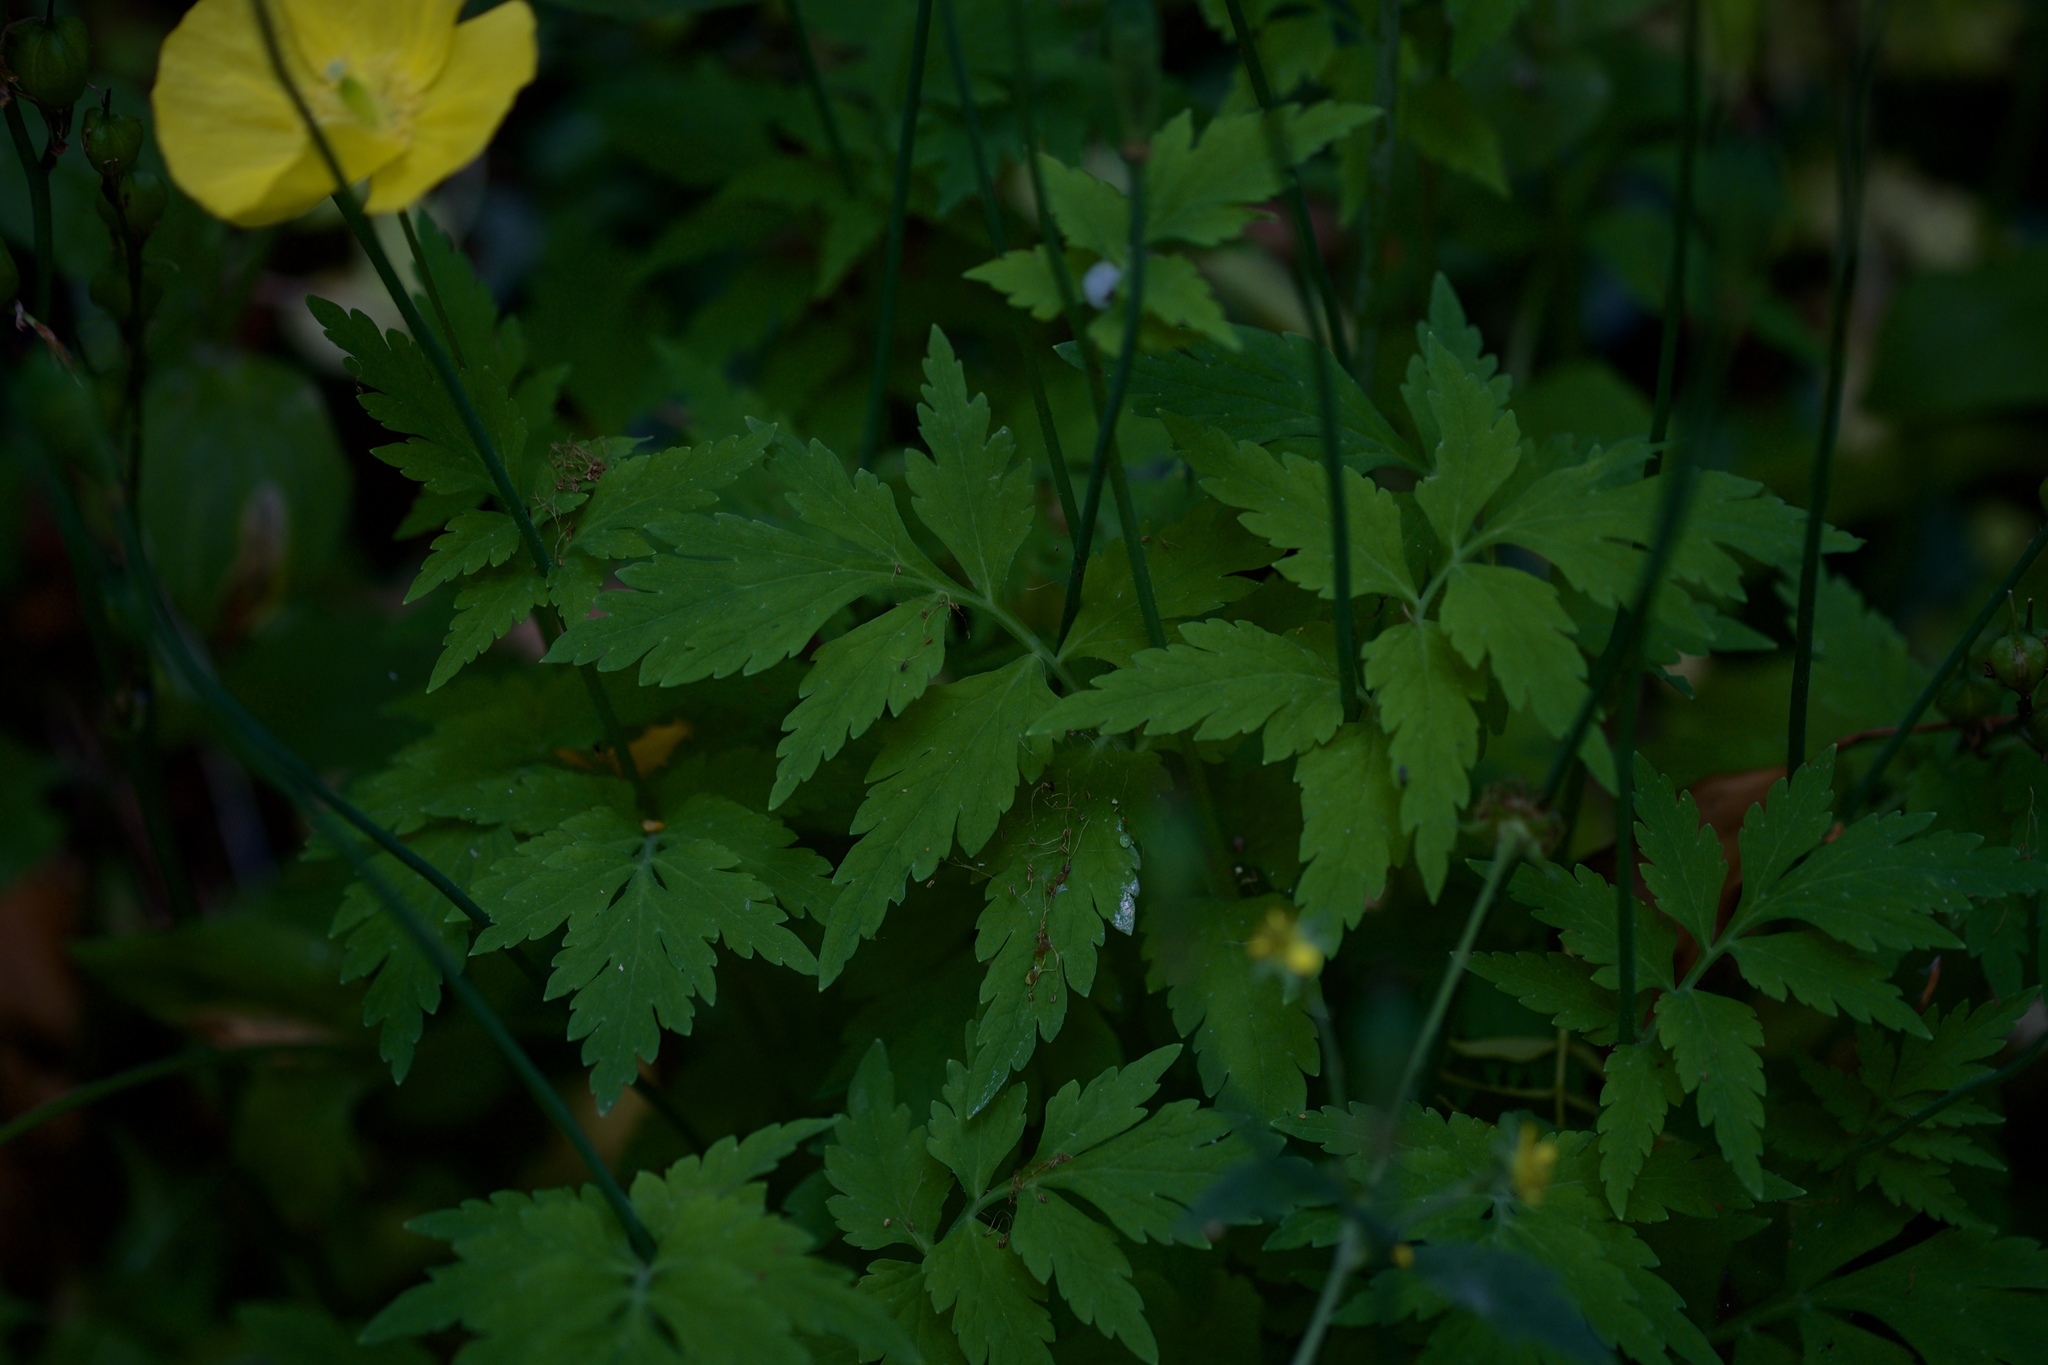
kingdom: Plantae
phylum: Tracheophyta
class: Magnoliopsida
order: Ranunculales
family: Papaveraceae
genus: Papaver
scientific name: Papaver cambricum
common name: Poppy
